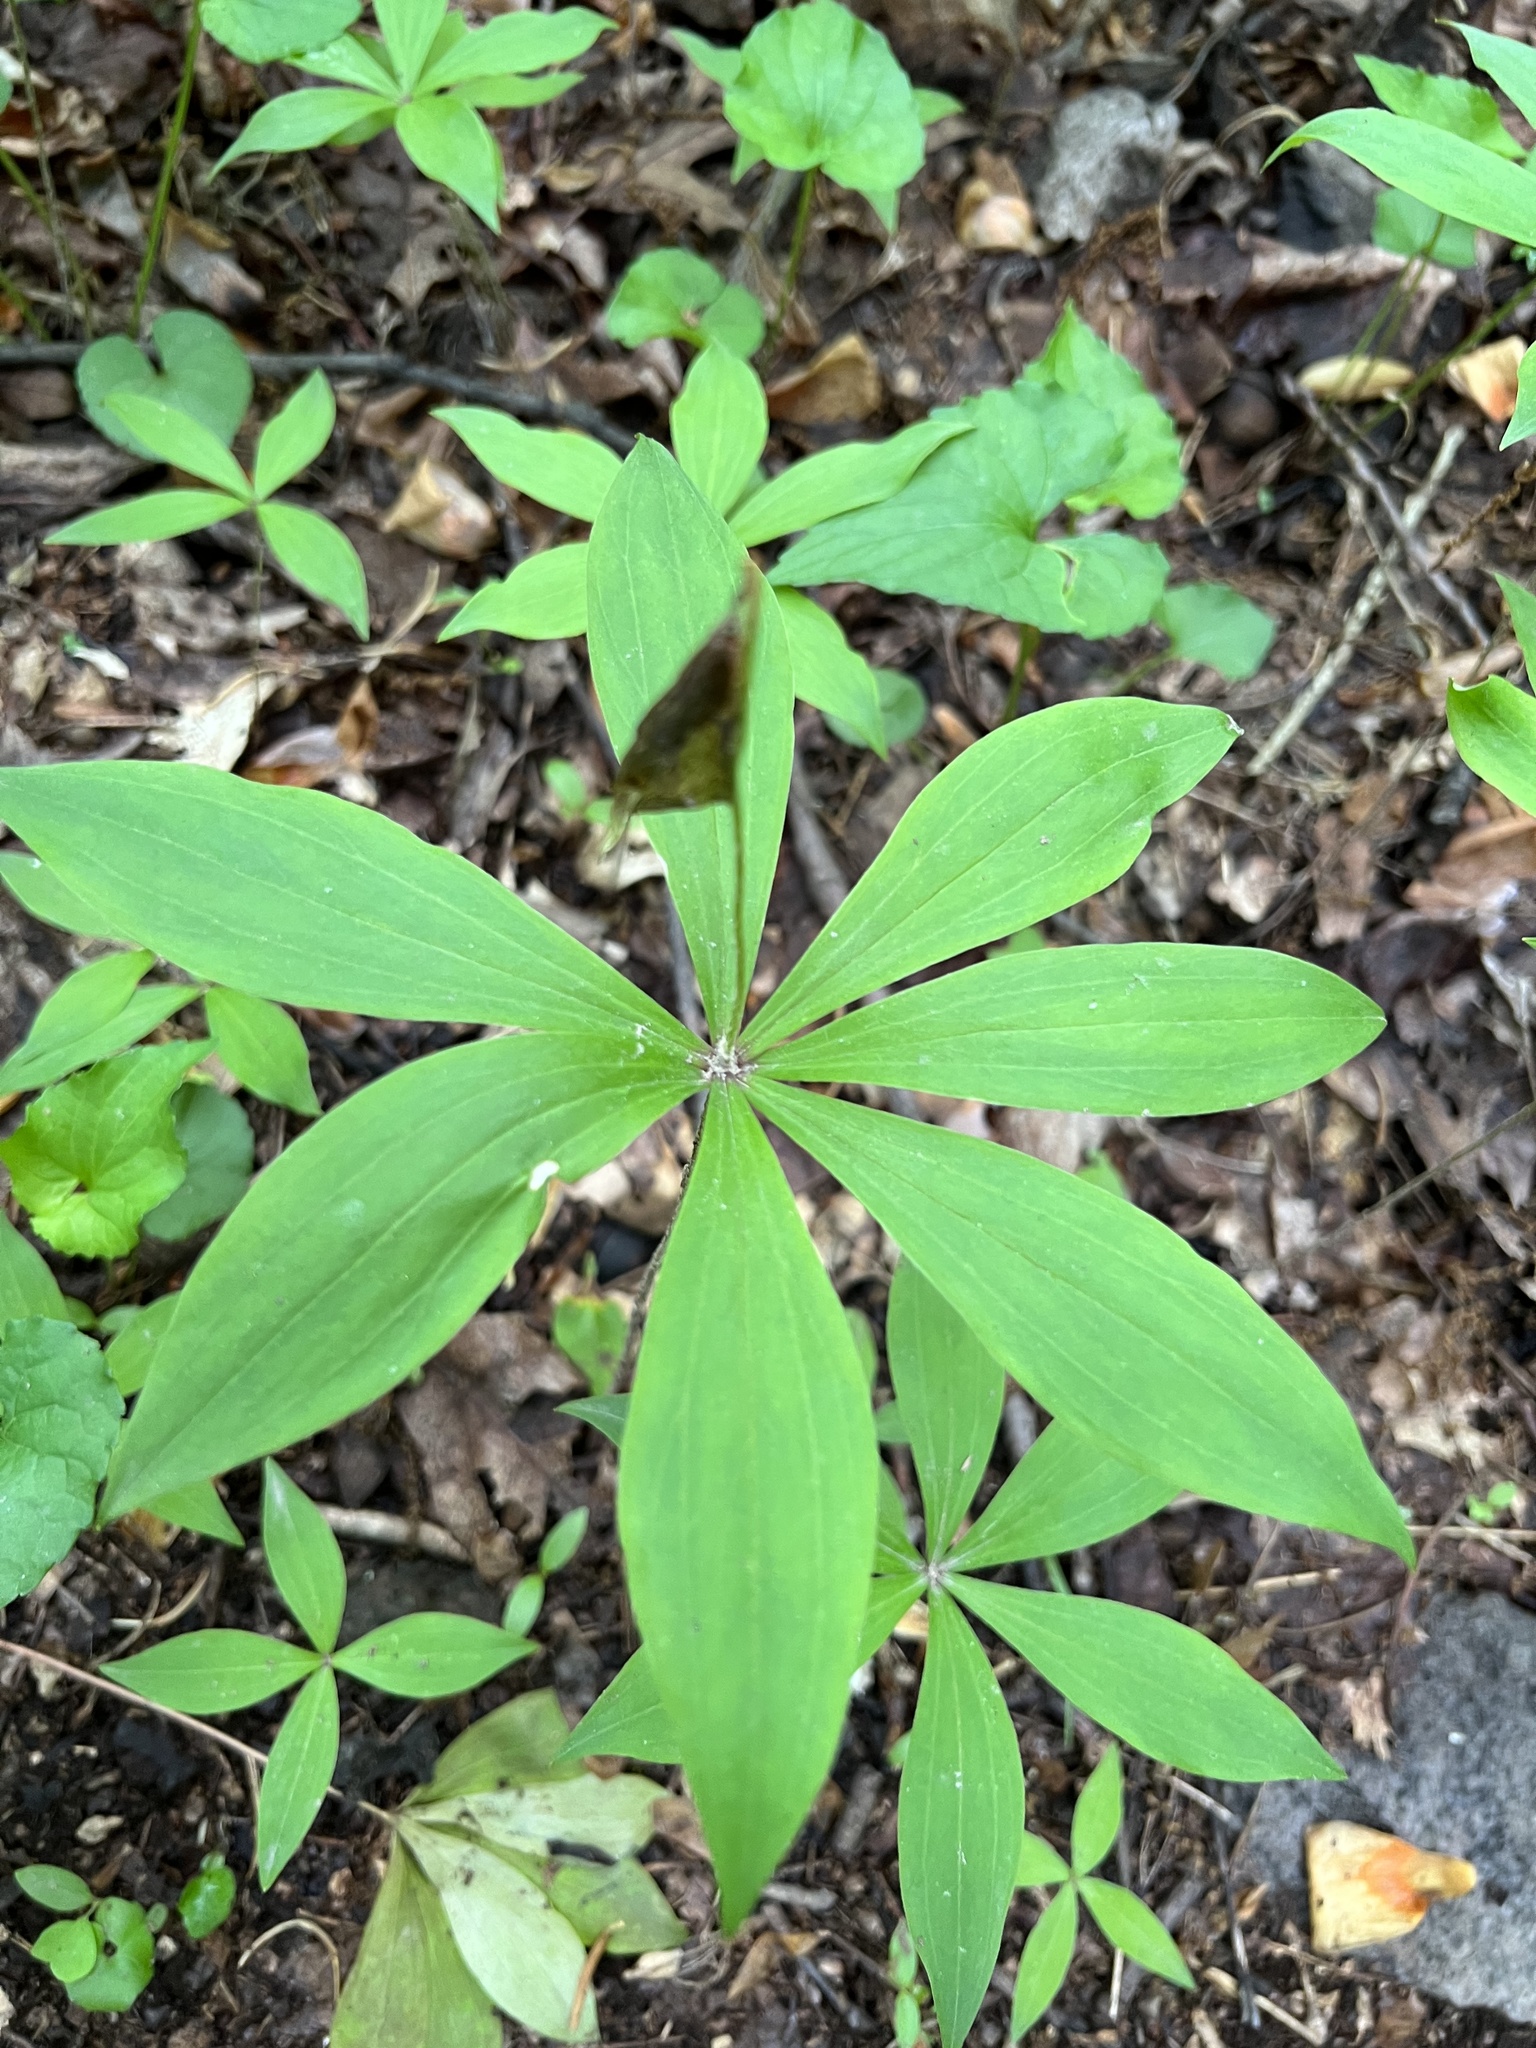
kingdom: Plantae
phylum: Tracheophyta
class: Liliopsida
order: Liliales
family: Liliaceae
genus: Medeola
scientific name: Medeola virginiana
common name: Indian cucumber-root
